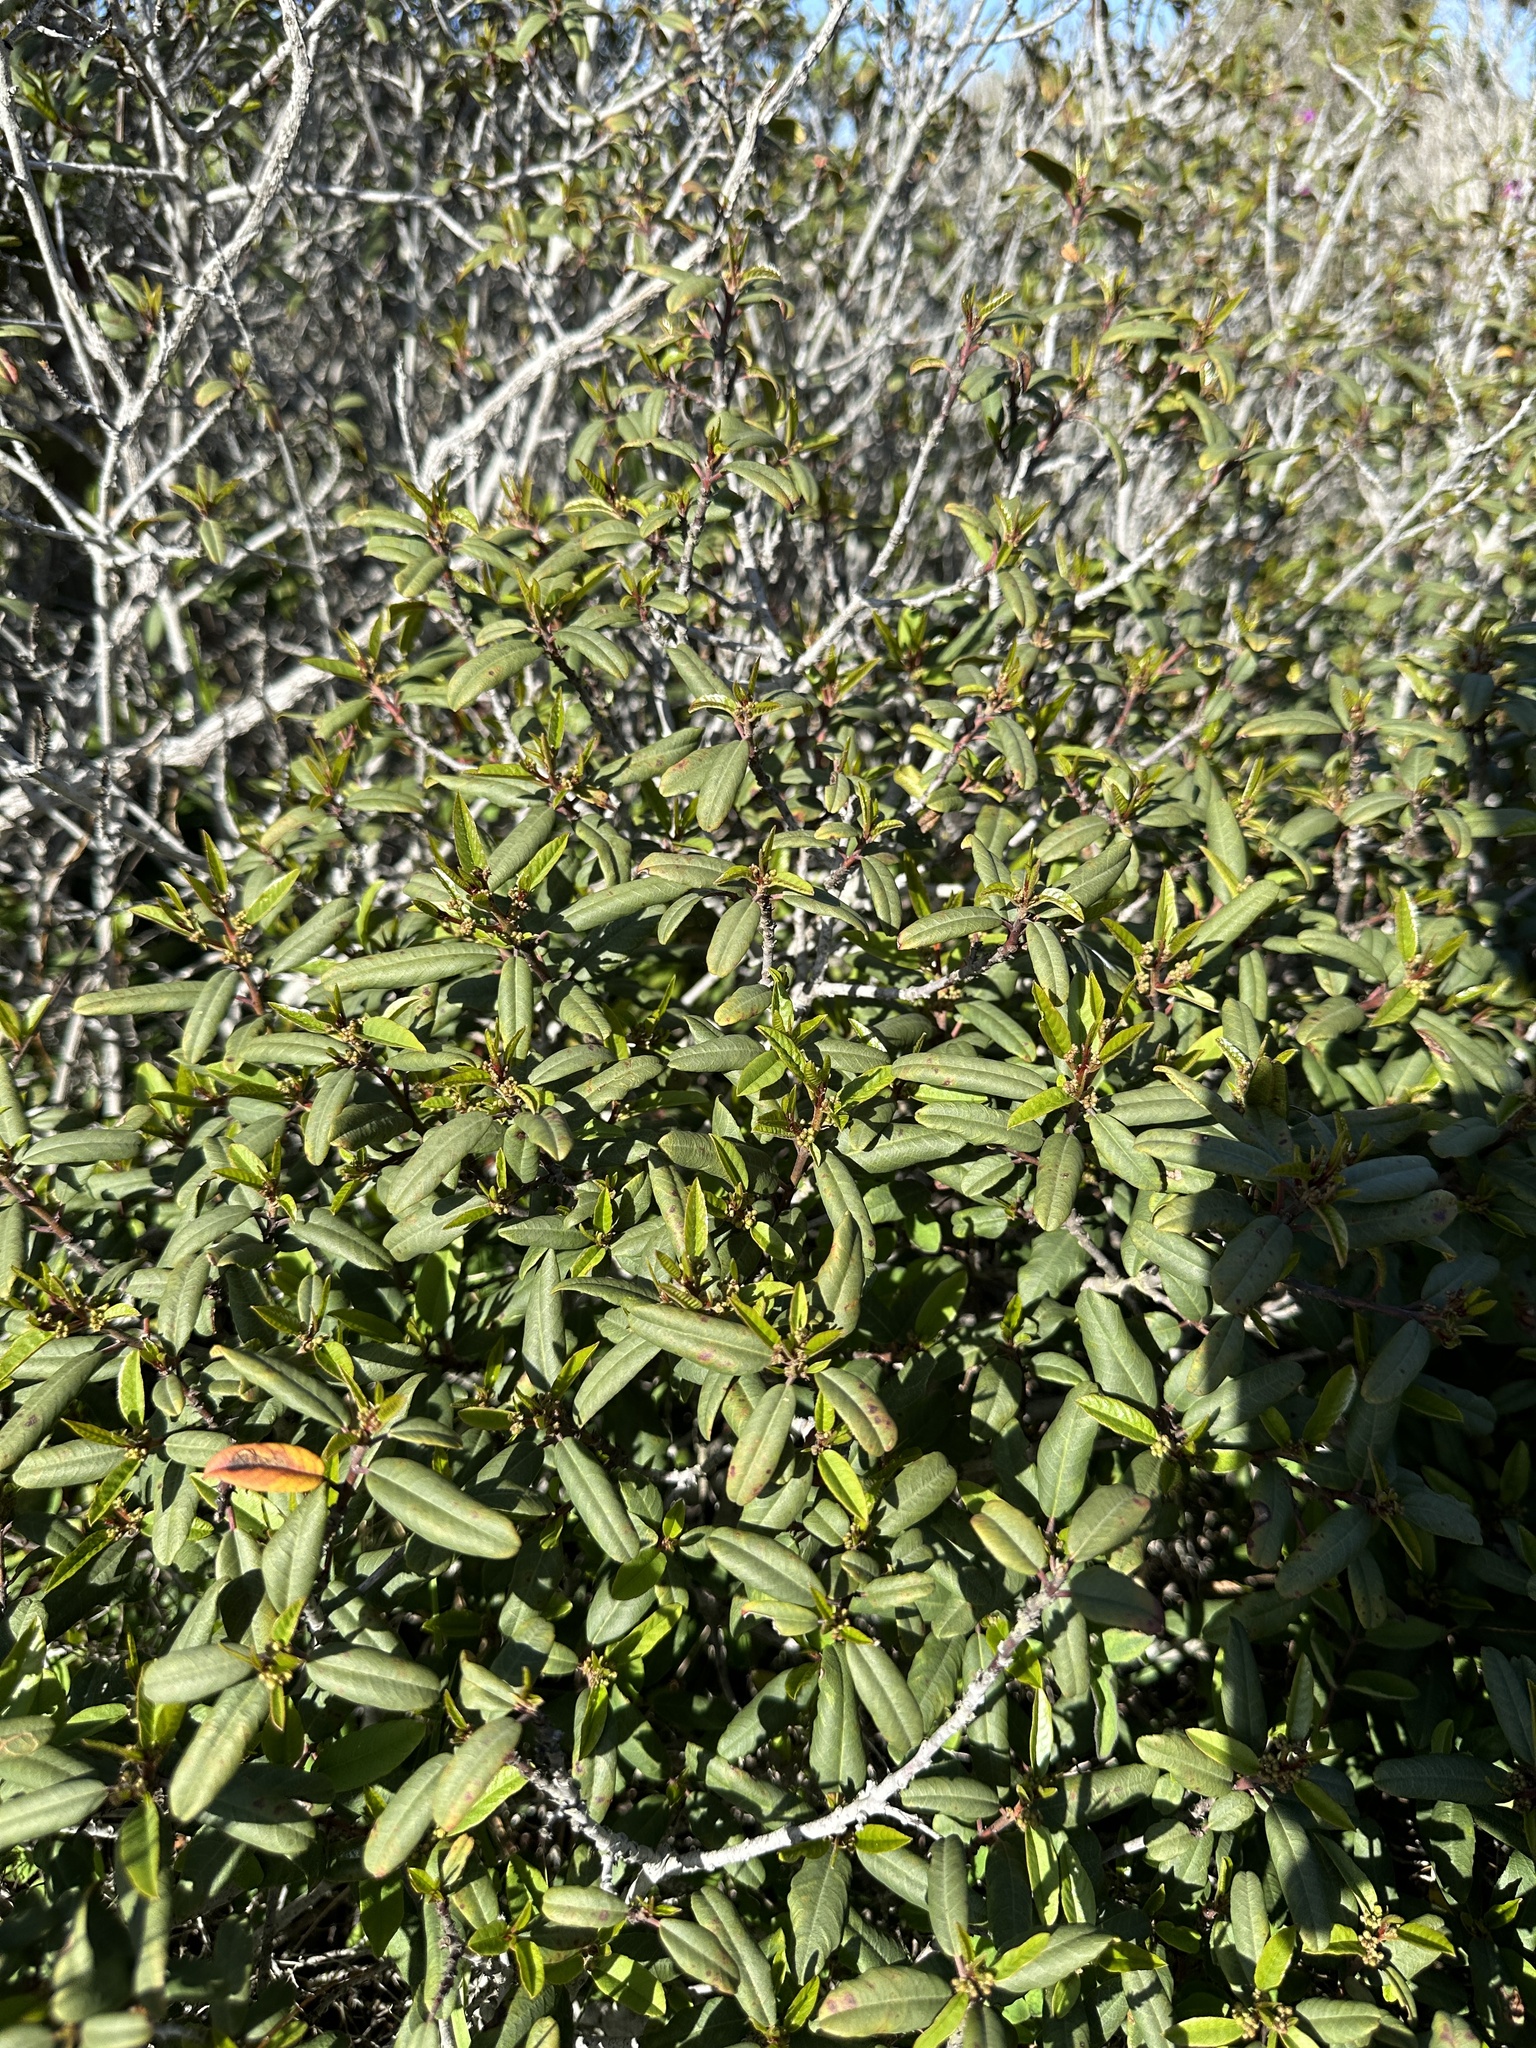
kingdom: Plantae
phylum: Tracheophyta
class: Magnoliopsida
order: Rosales
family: Rhamnaceae
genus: Frangula
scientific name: Frangula californica
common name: California buckthorn
